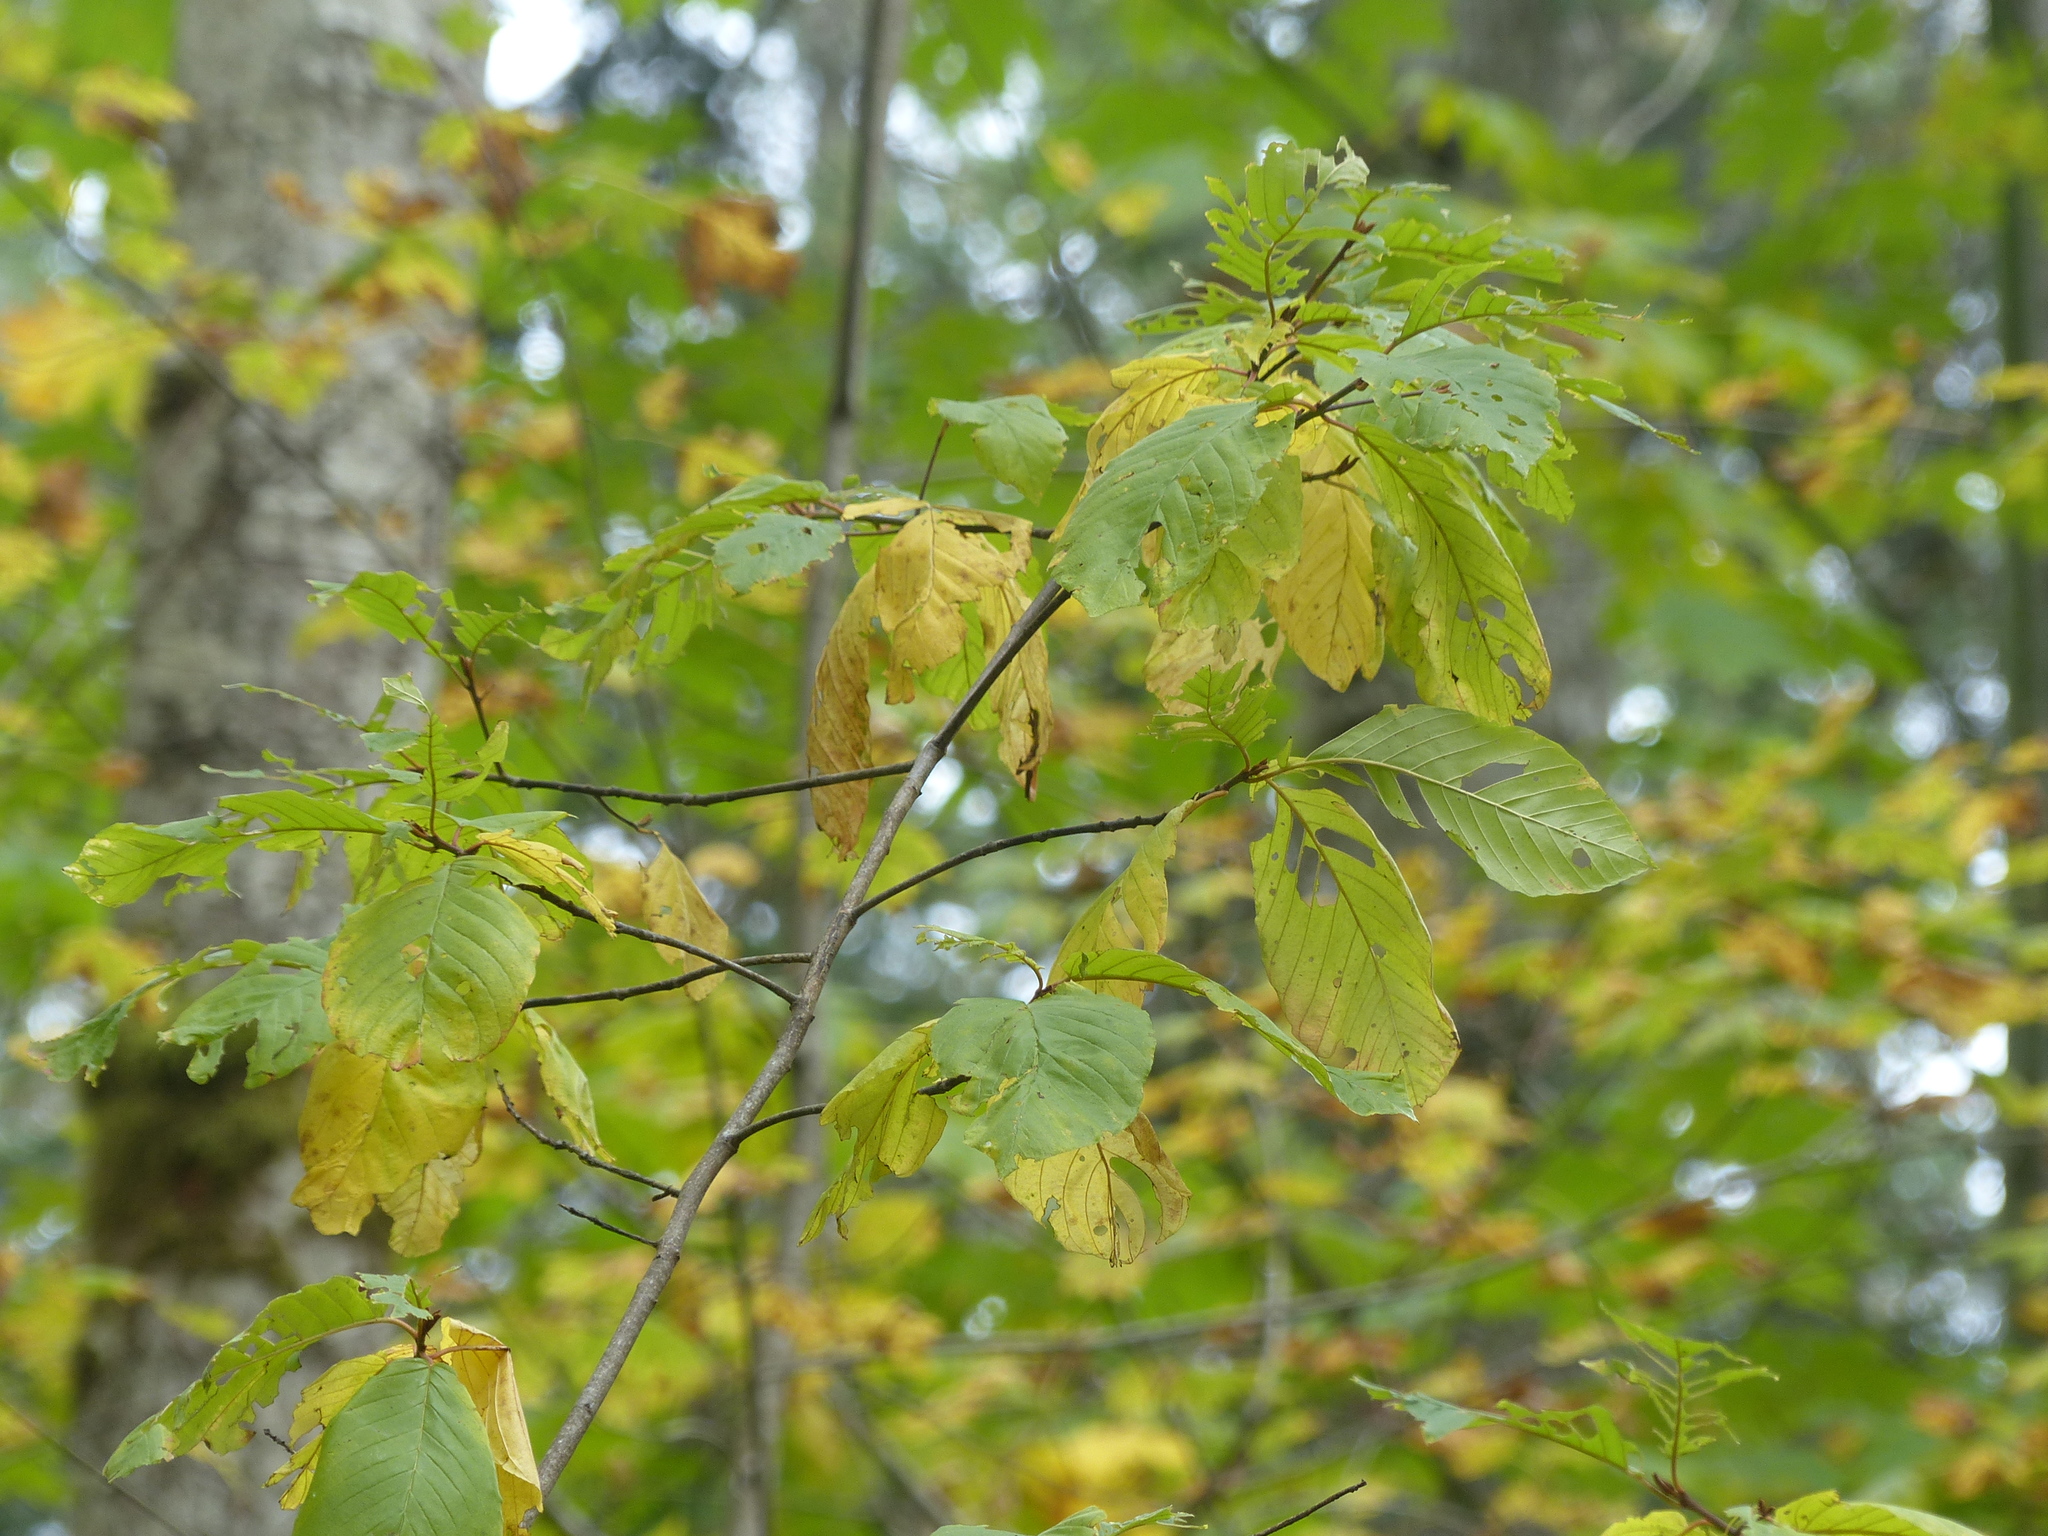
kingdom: Plantae
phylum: Tracheophyta
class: Magnoliopsida
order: Rosales
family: Rhamnaceae
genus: Frangula
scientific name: Frangula purshiana
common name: Cascara buckthorn
